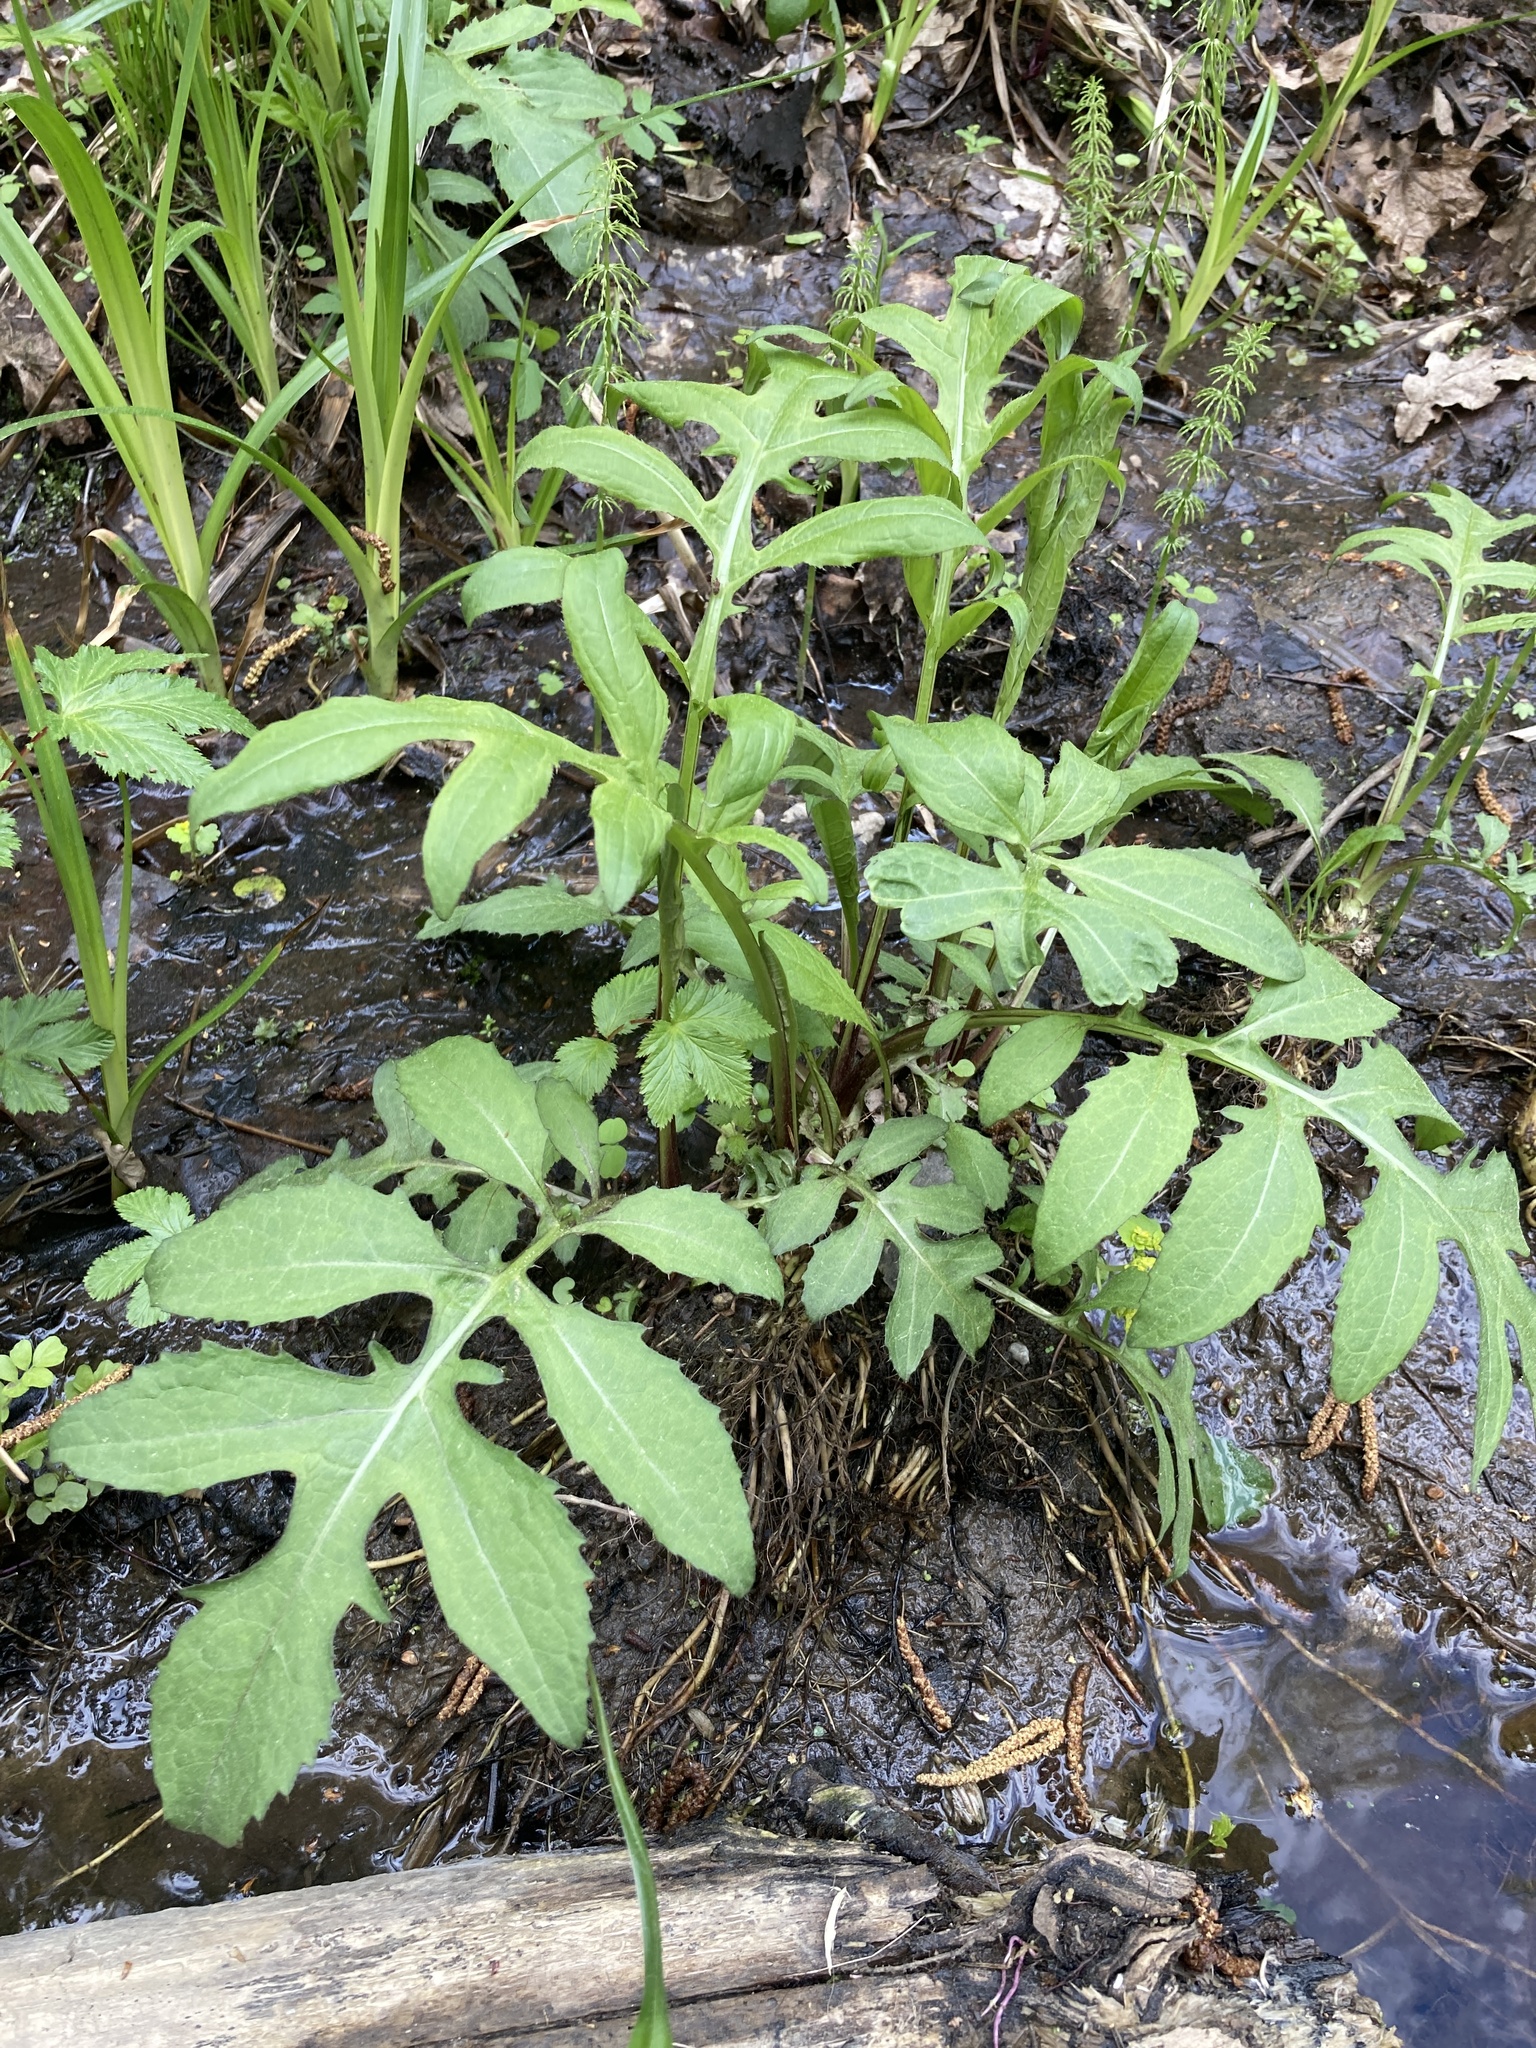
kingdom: Plantae
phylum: Tracheophyta
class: Magnoliopsida
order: Asterales
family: Asteraceae
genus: Cirsium
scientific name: Cirsium oleraceum
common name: Cabbage thistle
